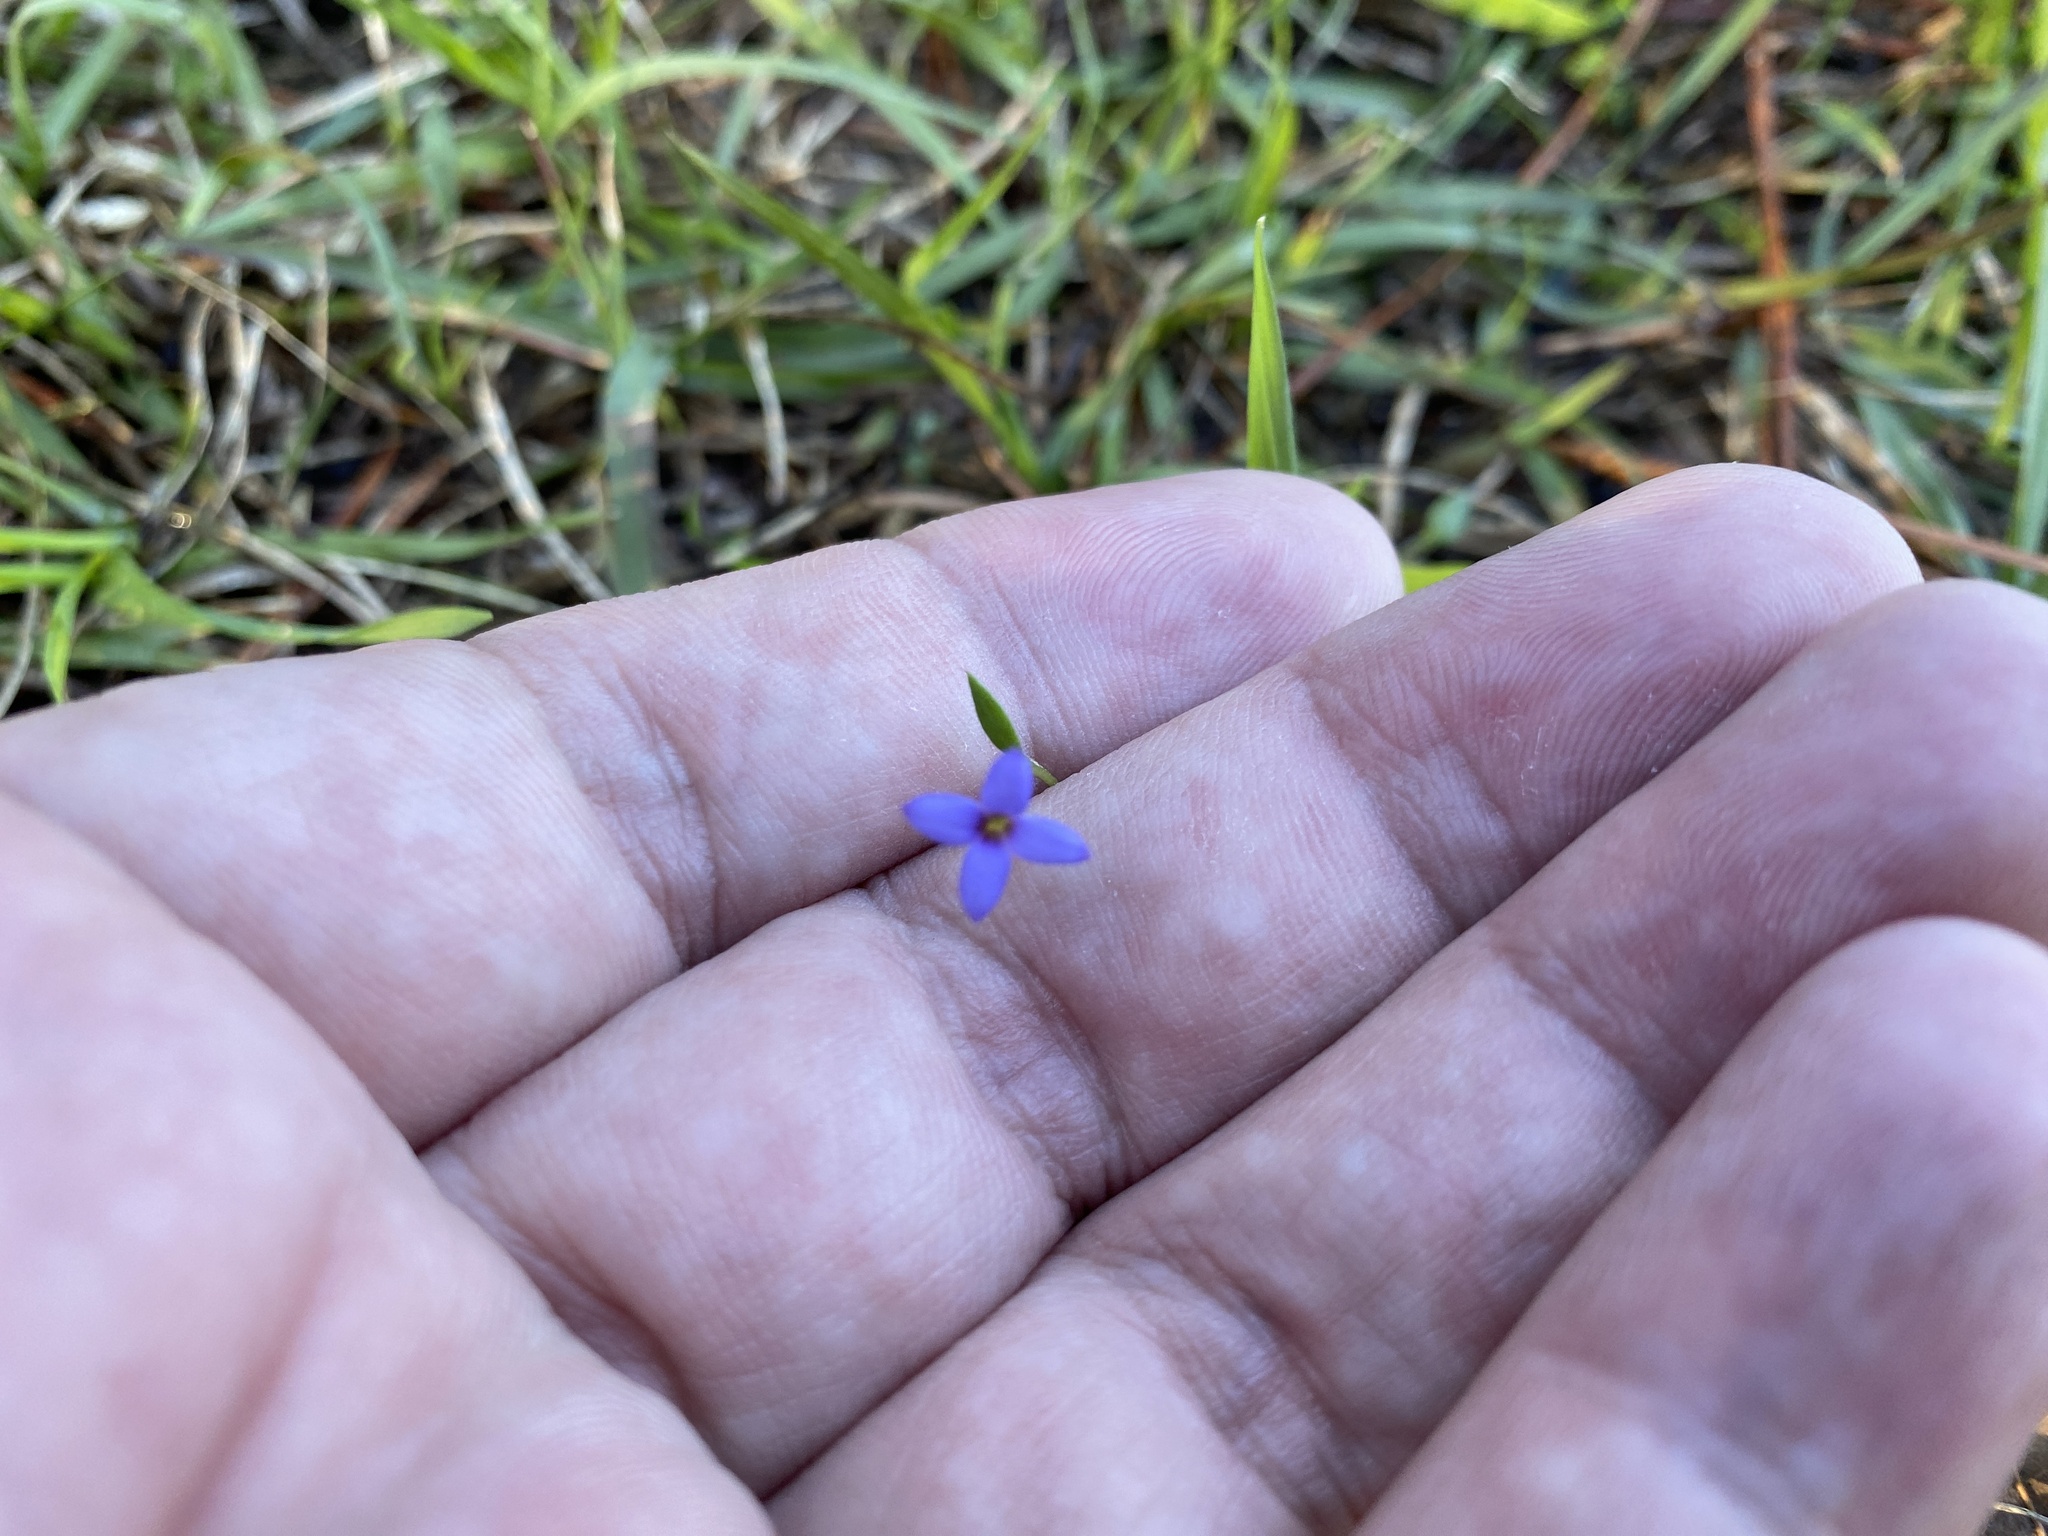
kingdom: Plantae
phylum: Tracheophyta
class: Magnoliopsida
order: Gentianales
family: Rubiaceae
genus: Houstonia
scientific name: Houstonia pusilla
